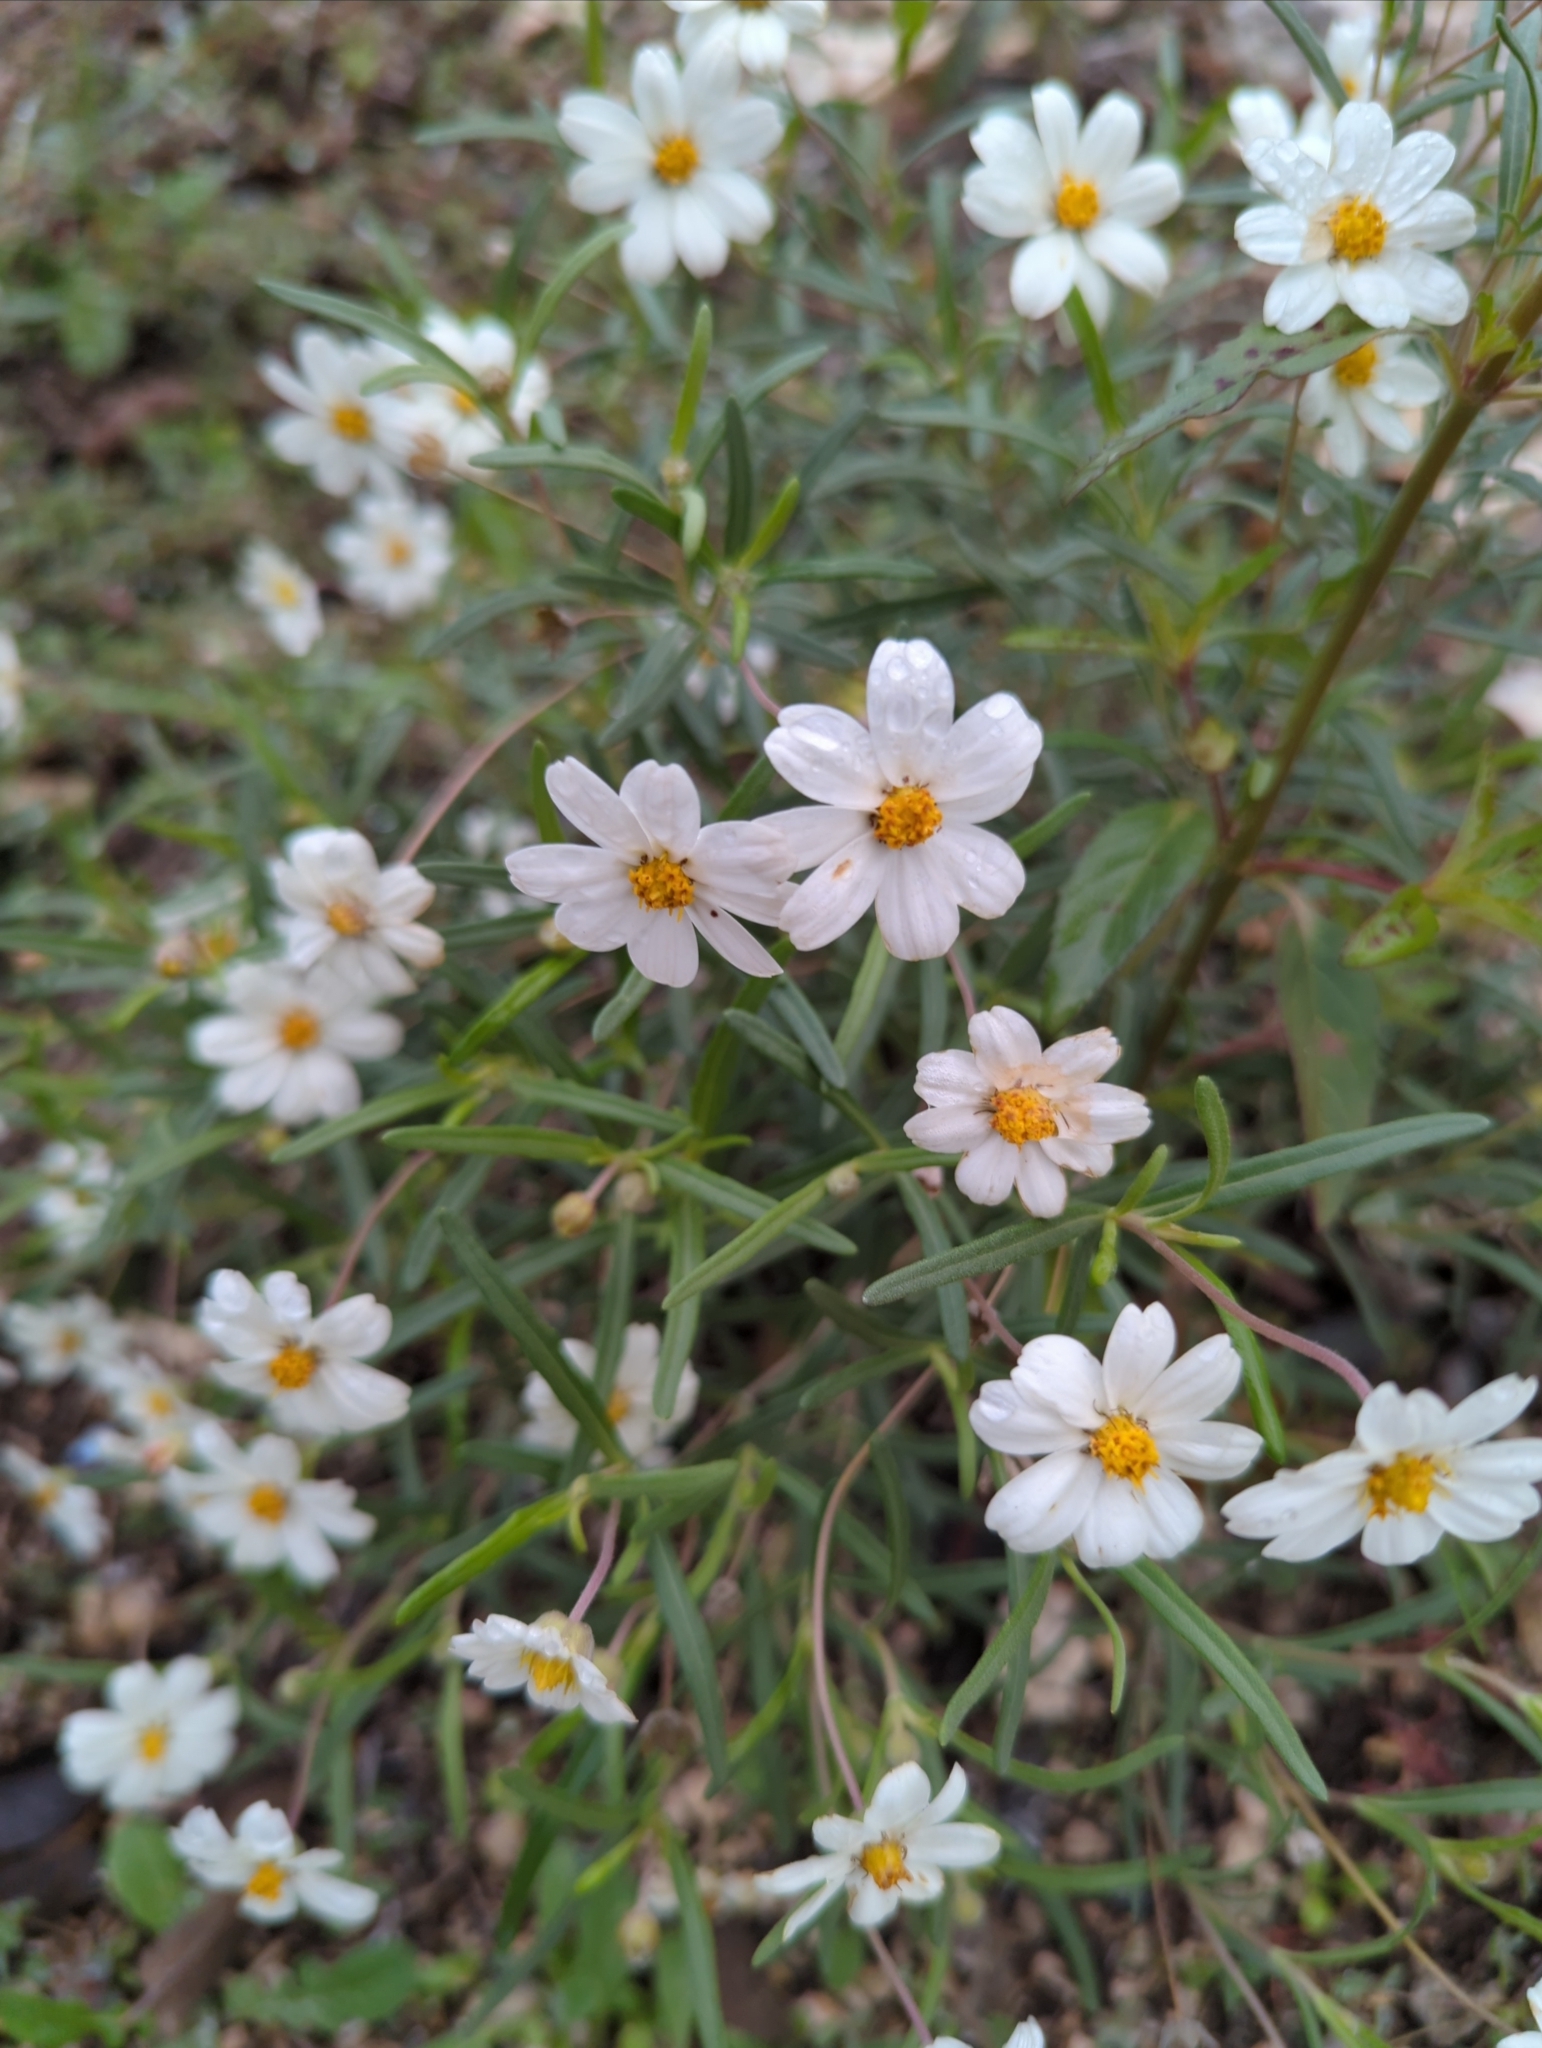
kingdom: Plantae
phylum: Tracheophyta
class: Magnoliopsida
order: Asterales
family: Asteraceae
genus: Melampodium
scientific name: Melampodium leucanthum
